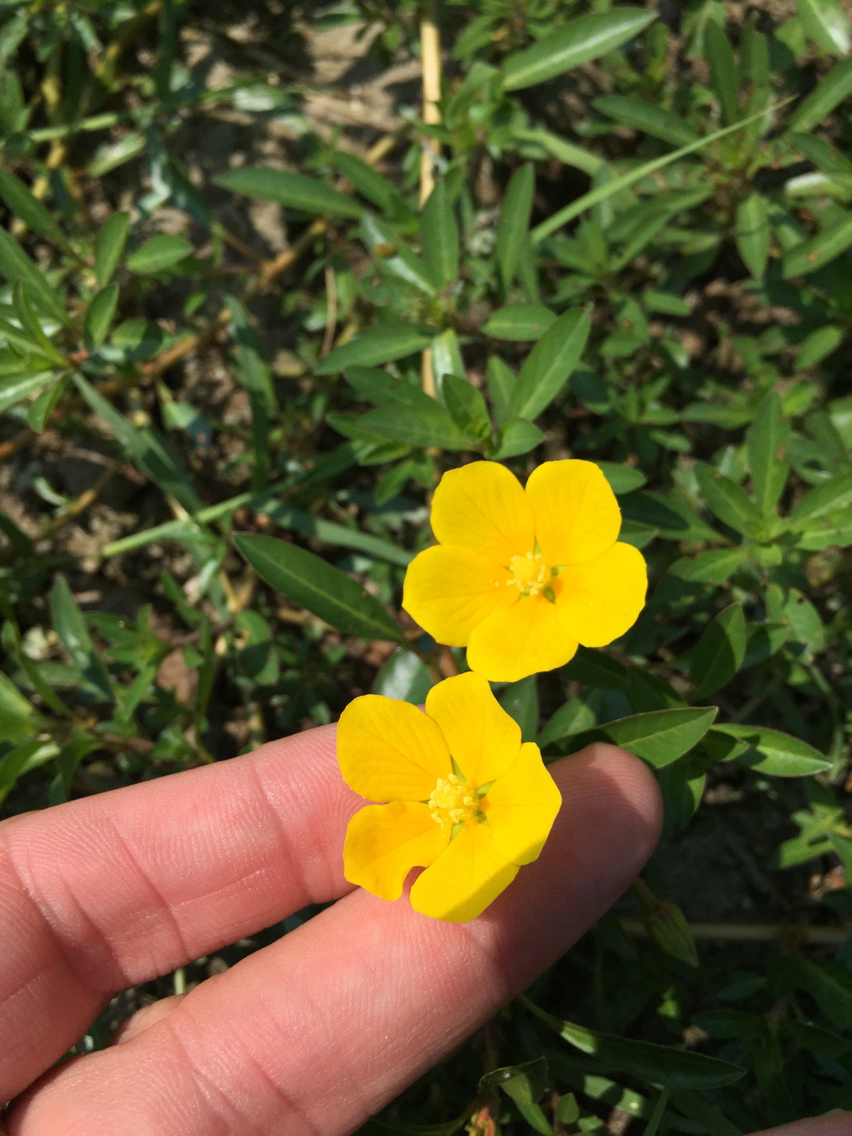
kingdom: Plantae
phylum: Tracheophyta
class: Magnoliopsida
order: Myrtales
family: Onagraceae
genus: Ludwigia
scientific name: Ludwigia peploides
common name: Floating primrose-willow
